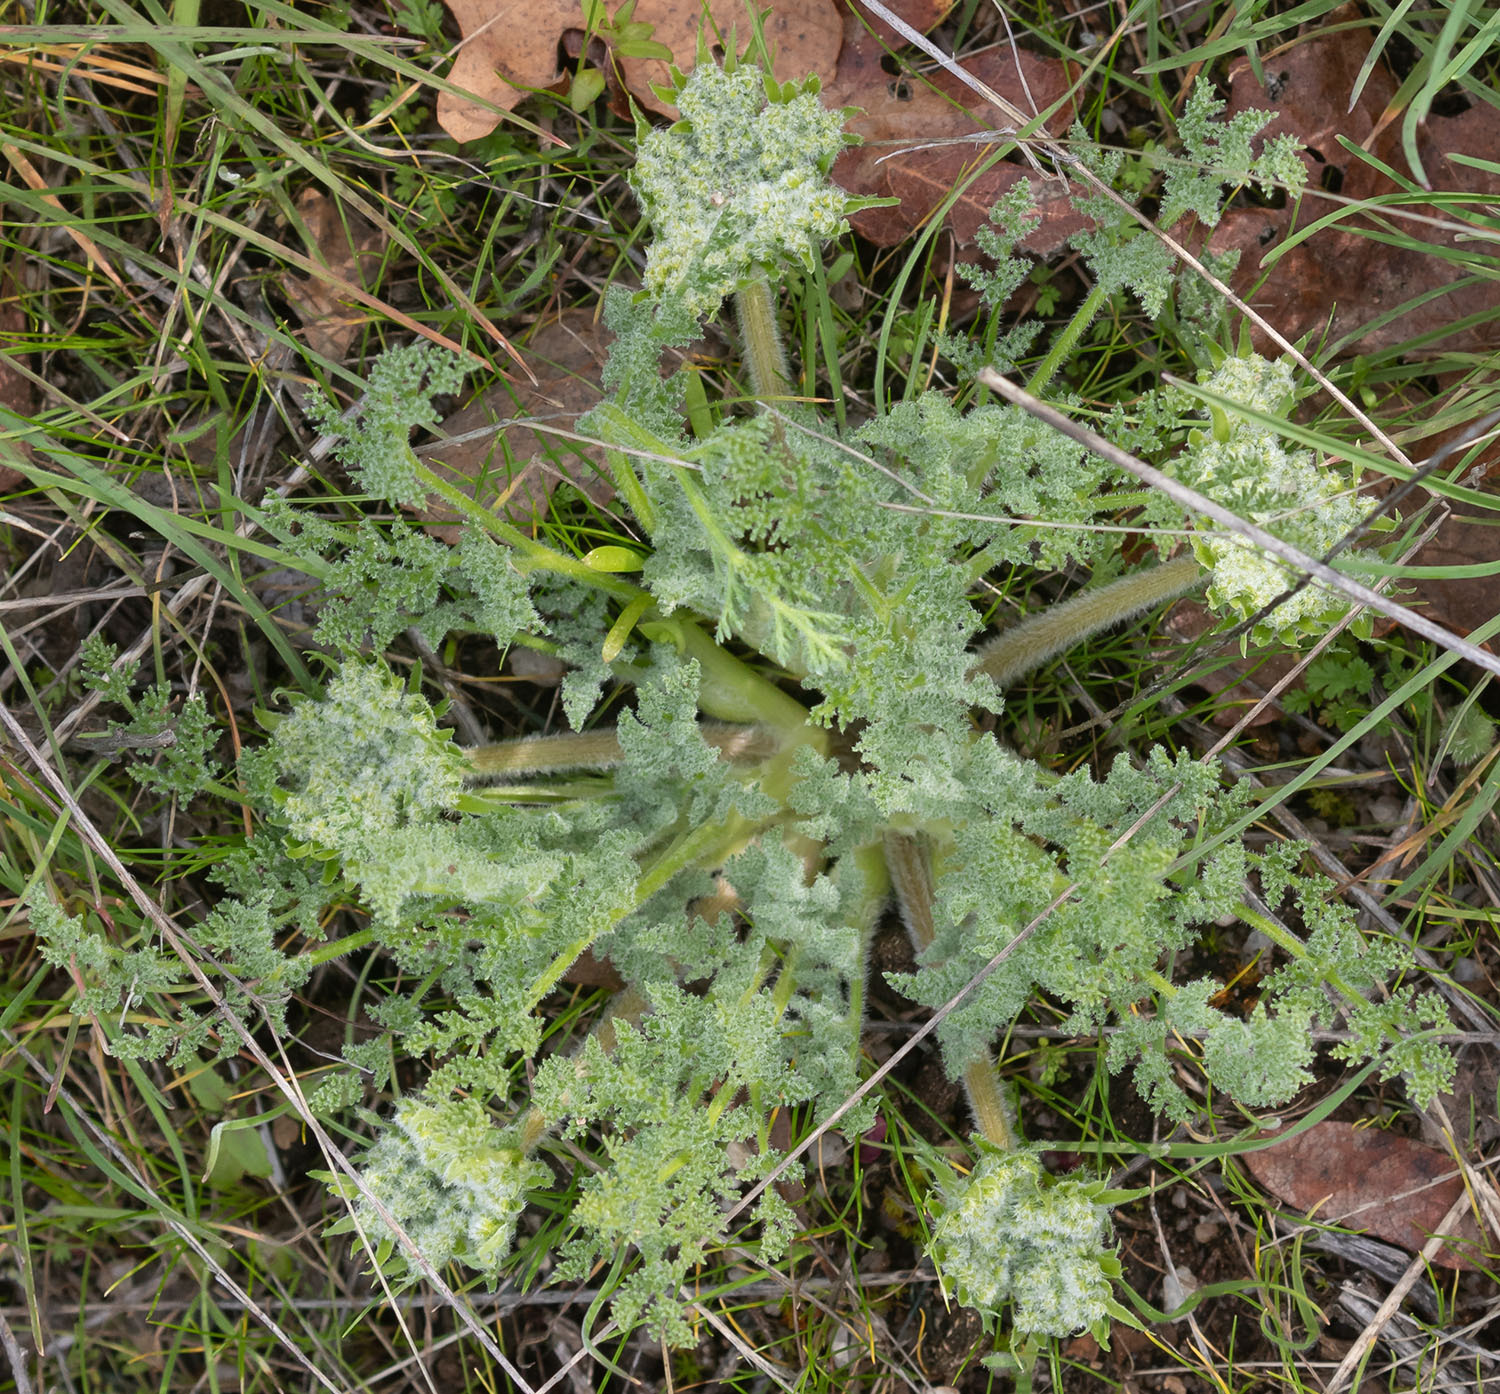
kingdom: Plantae
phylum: Tracheophyta
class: Magnoliopsida
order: Apiales
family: Apiaceae
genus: Lomatium
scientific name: Lomatium dasycarpum
